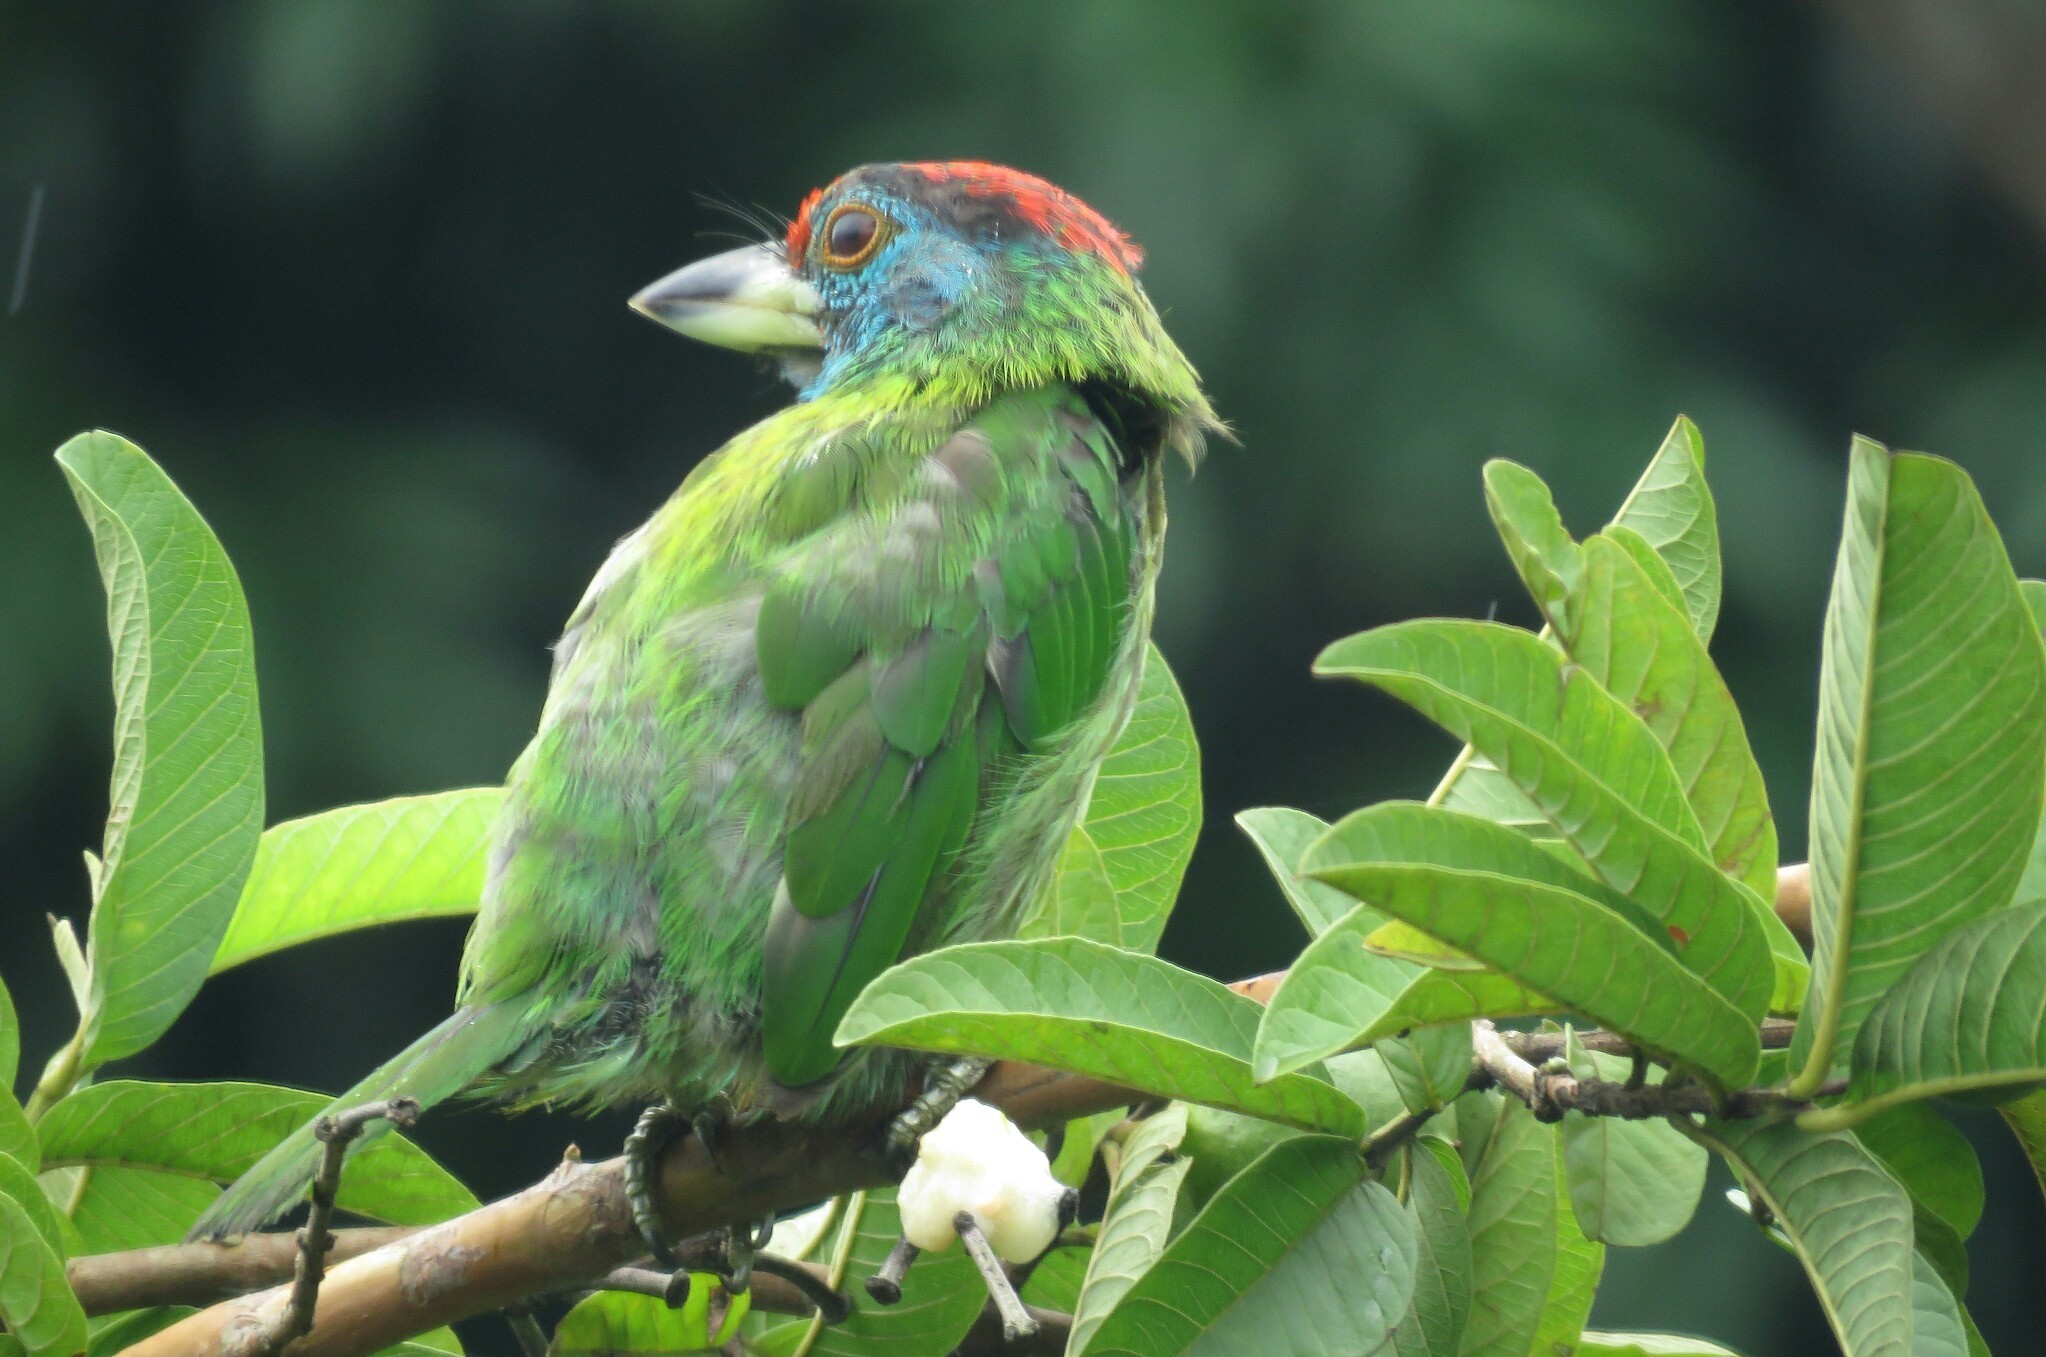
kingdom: Animalia
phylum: Chordata
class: Aves
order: Piciformes
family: Megalaimidae
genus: Psilopogon
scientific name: Psilopogon asiaticus
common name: Blue-throated barbet
